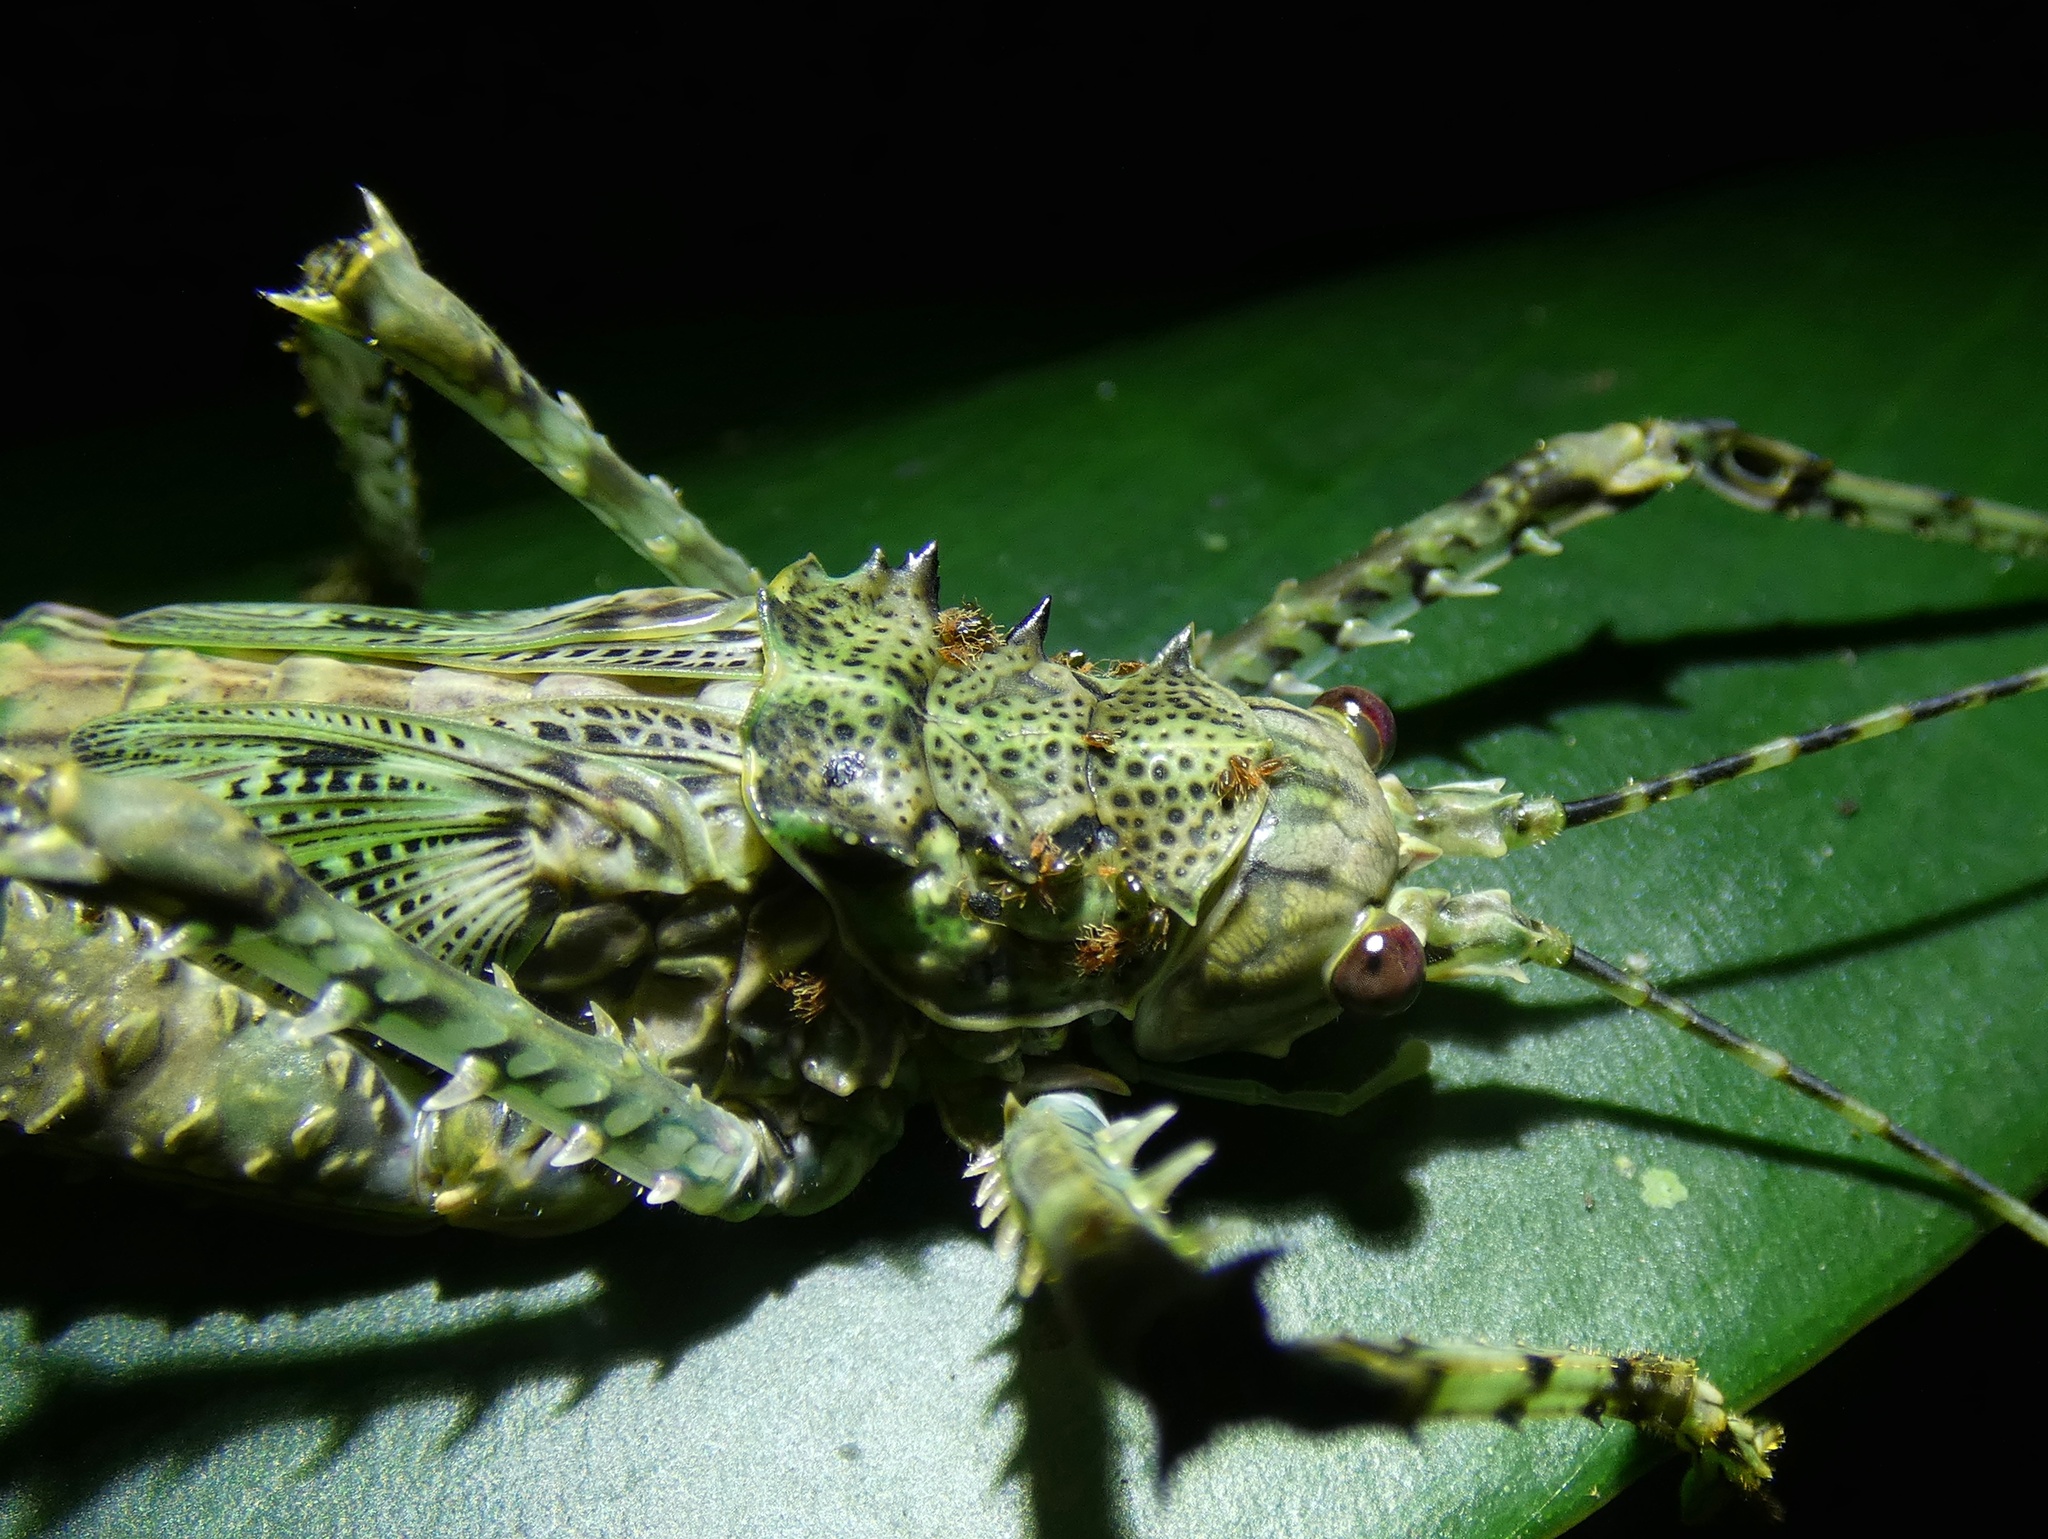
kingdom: Animalia
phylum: Arthropoda
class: Insecta
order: Orthoptera
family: Tettigoniidae
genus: Phricta
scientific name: Phricta spinosa
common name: Giant spiny forest katydid
